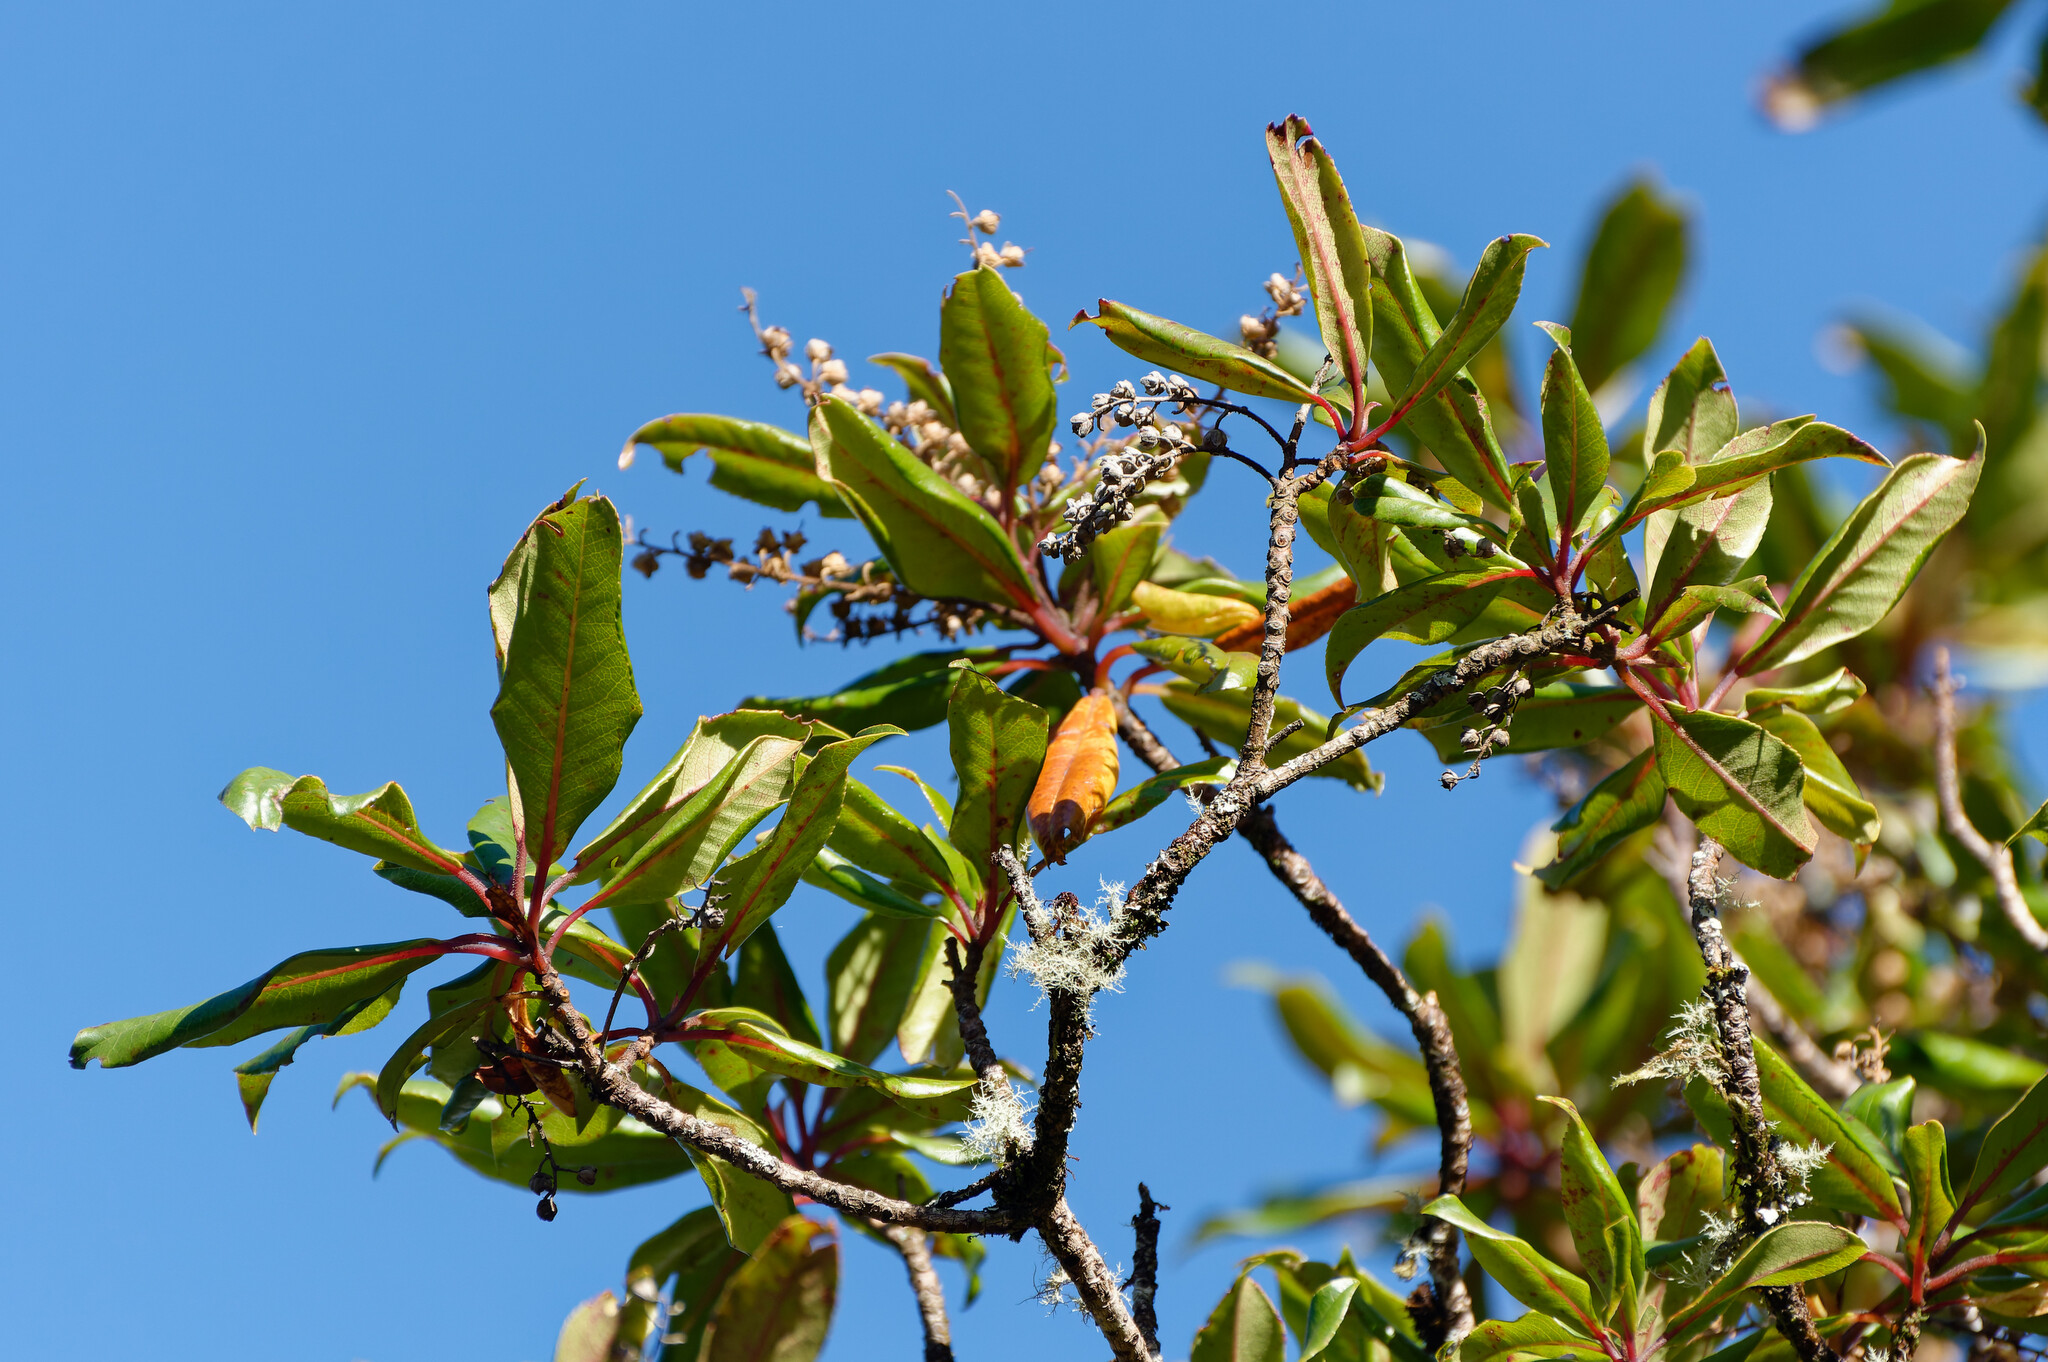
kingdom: Plantae
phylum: Tracheophyta
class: Magnoliopsida
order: Ericales
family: Clethraceae
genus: Clethra
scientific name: Clethra arborea
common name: Lily-of-the-valley-tree
